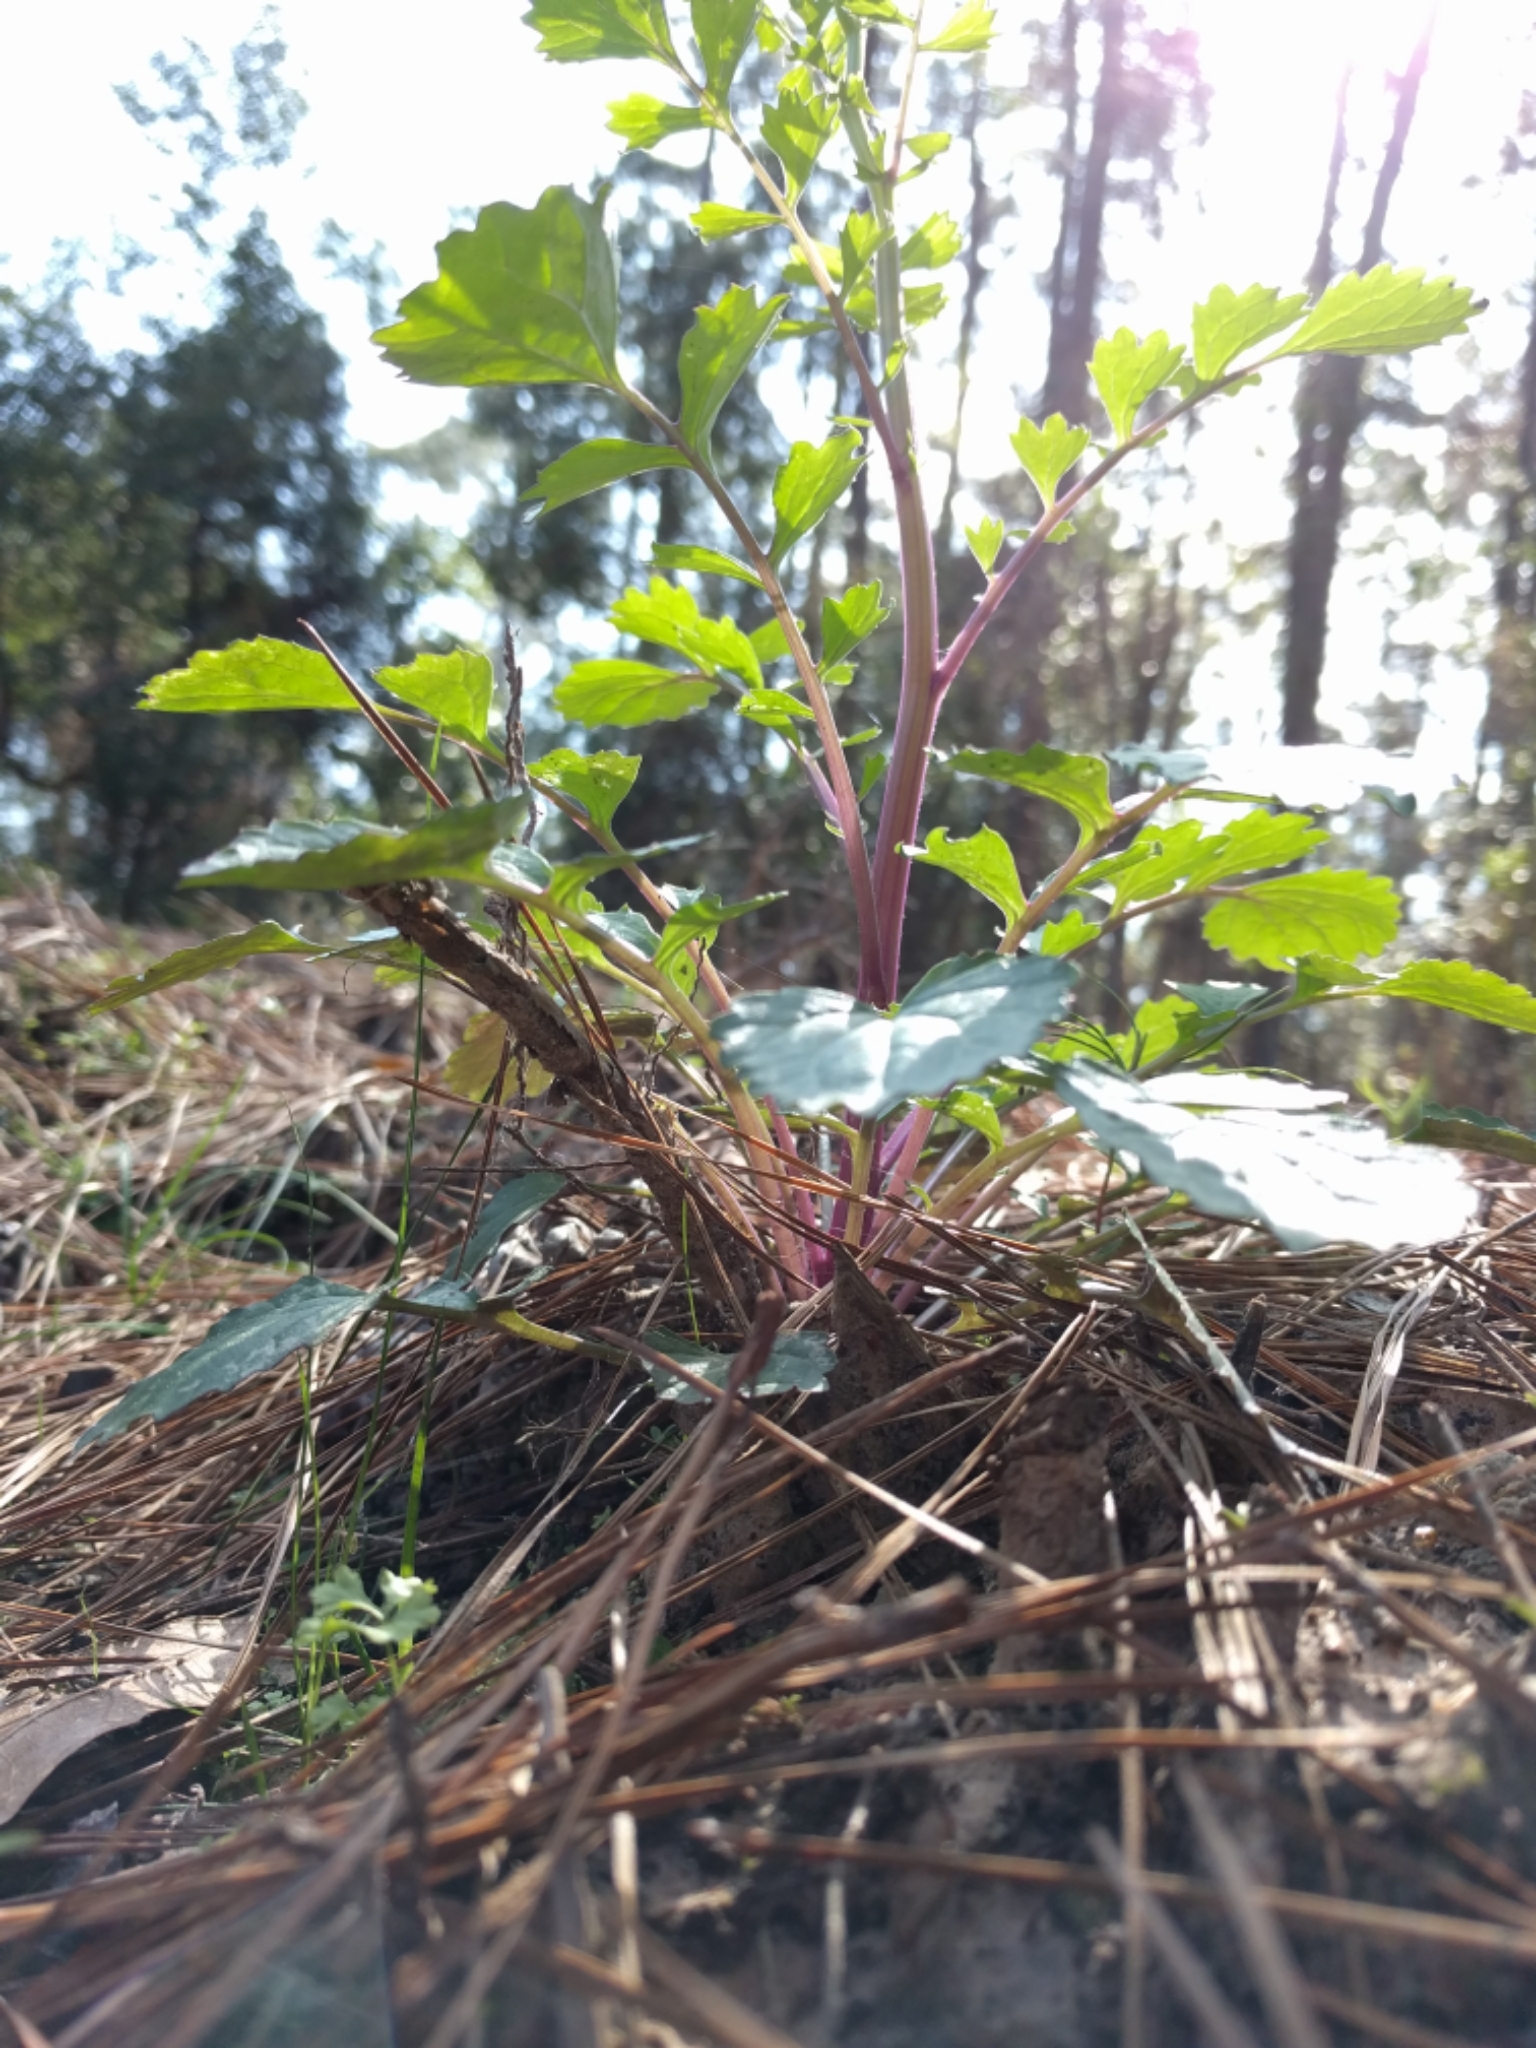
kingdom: Plantae
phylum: Tracheophyta
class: Magnoliopsida
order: Asterales
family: Asteraceae
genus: Packera
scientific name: Packera glabella
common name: Butterweed
